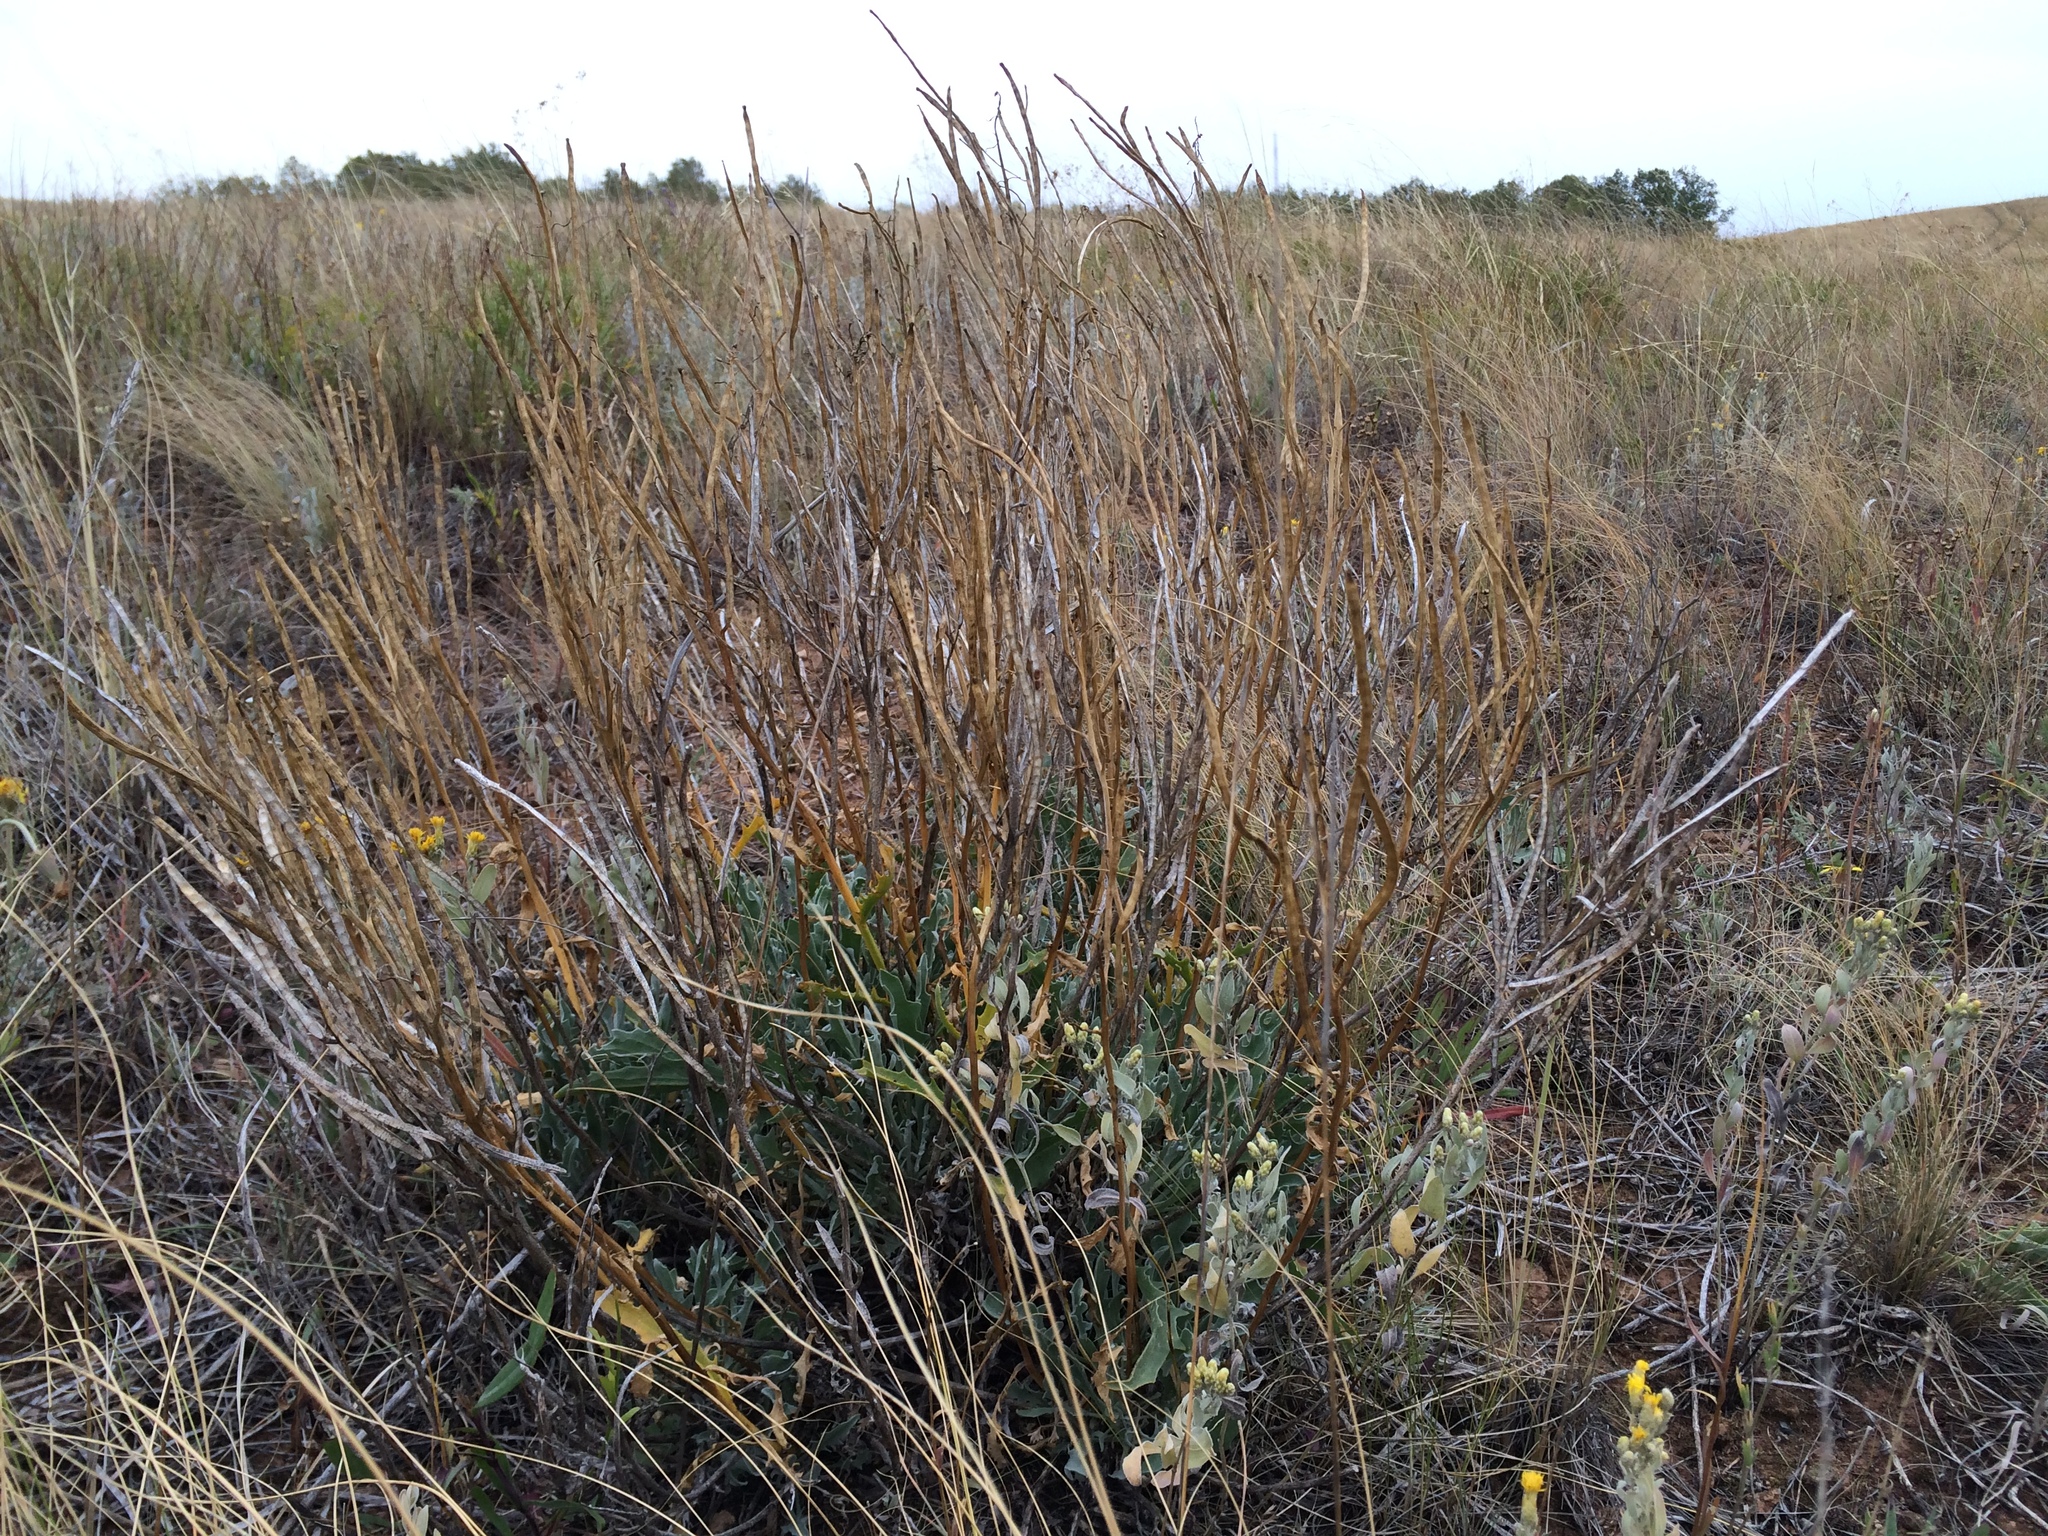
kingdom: Plantae
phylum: Tracheophyta
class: Magnoliopsida
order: Brassicales
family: Brassicaceae
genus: Matthiola
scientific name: Matthiola fragrans
